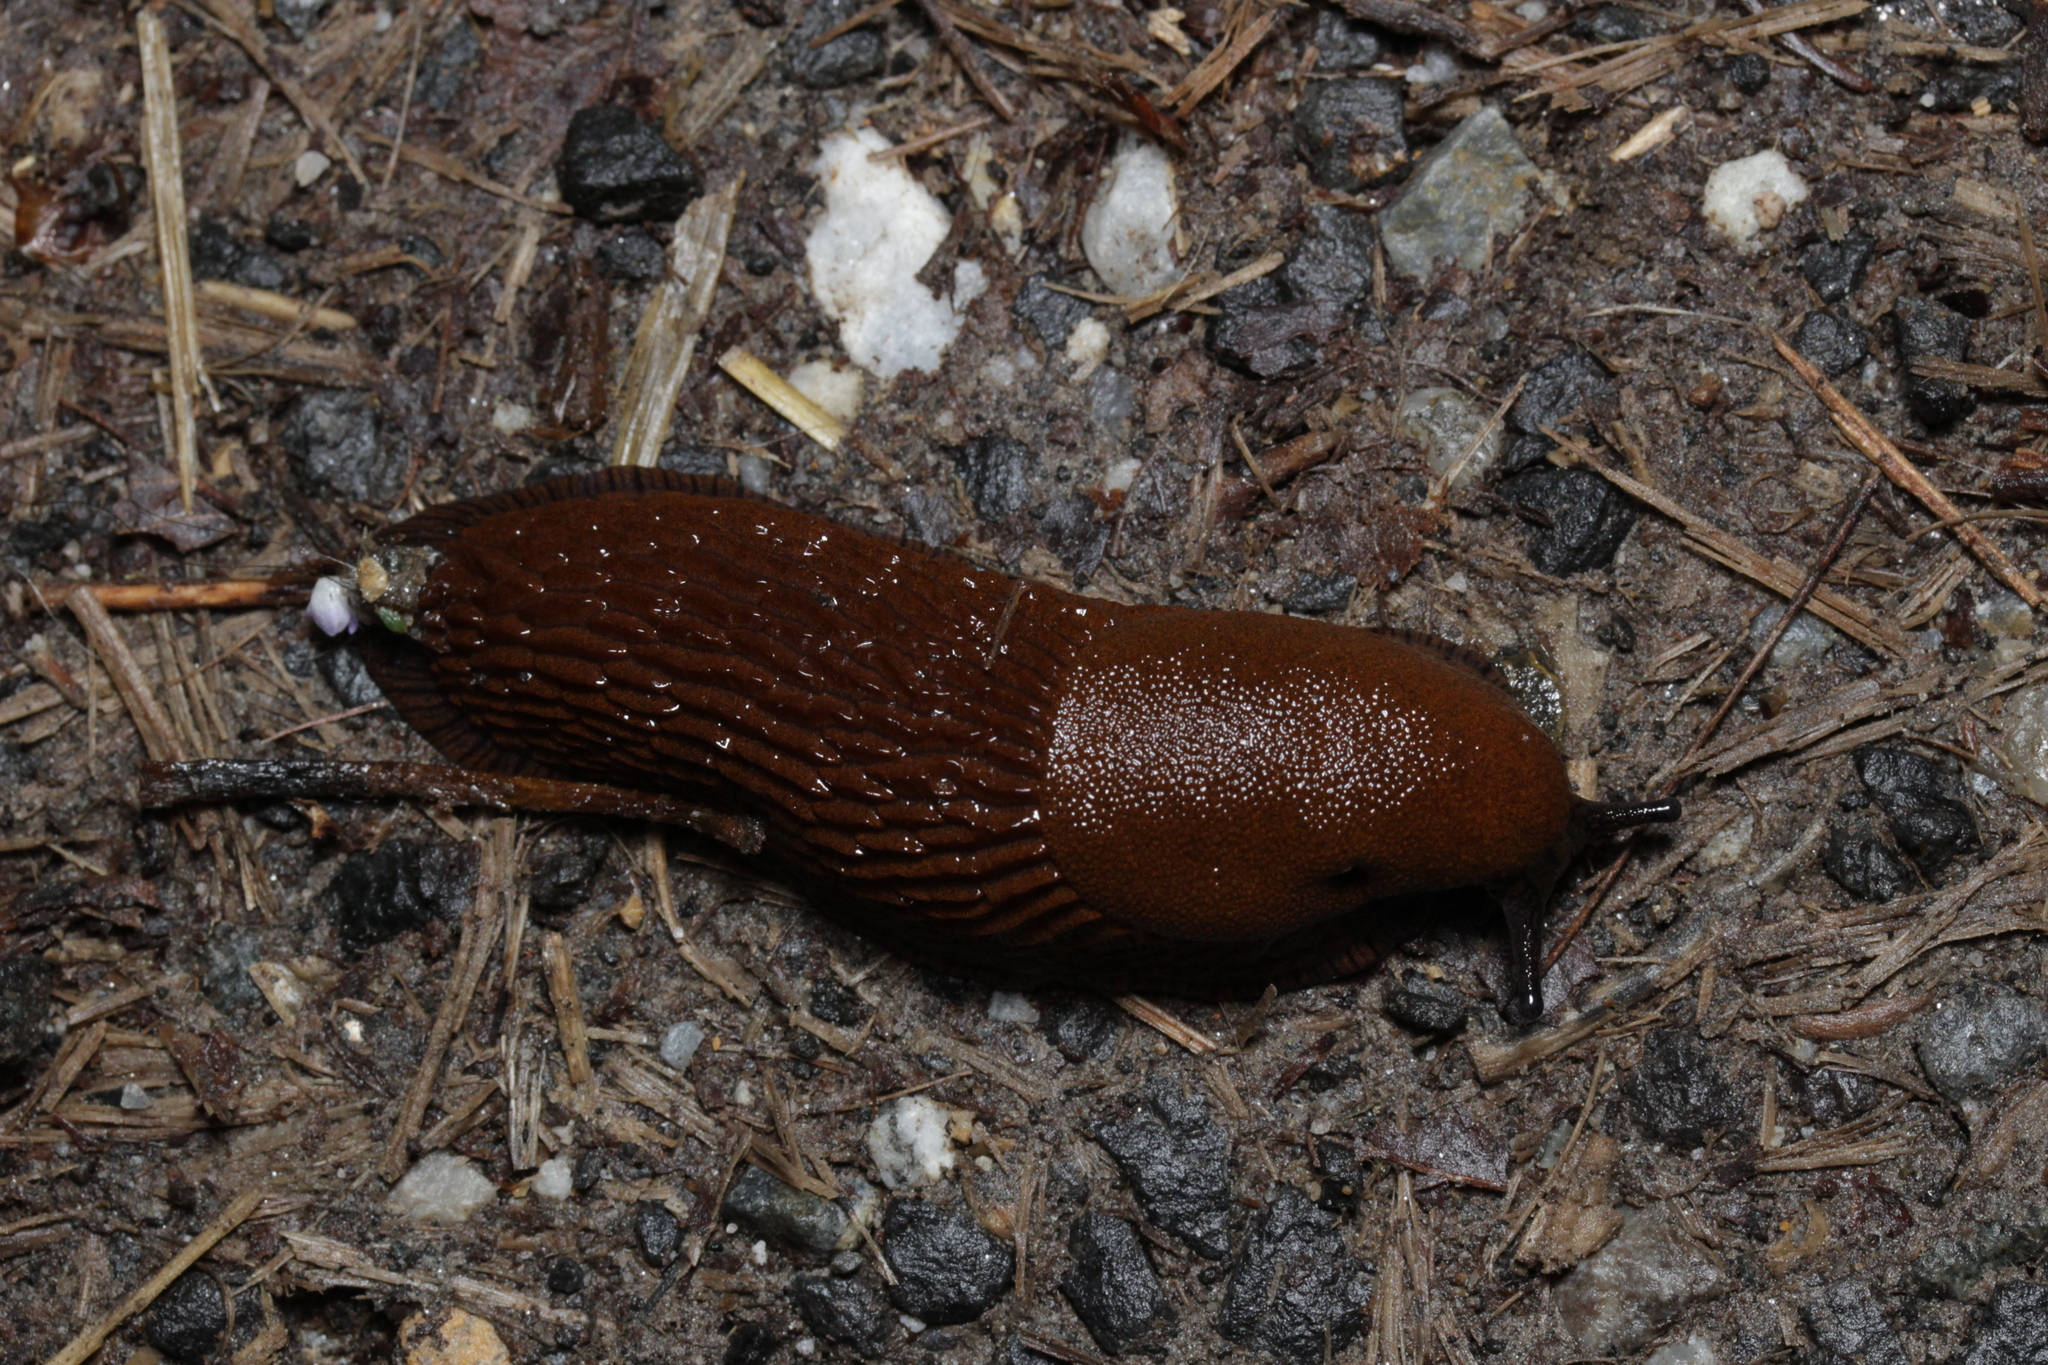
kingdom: Animalia
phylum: Mollusca
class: Gastropoda
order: Stylommatophora
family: Arionidae
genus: Arion
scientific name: Arion
